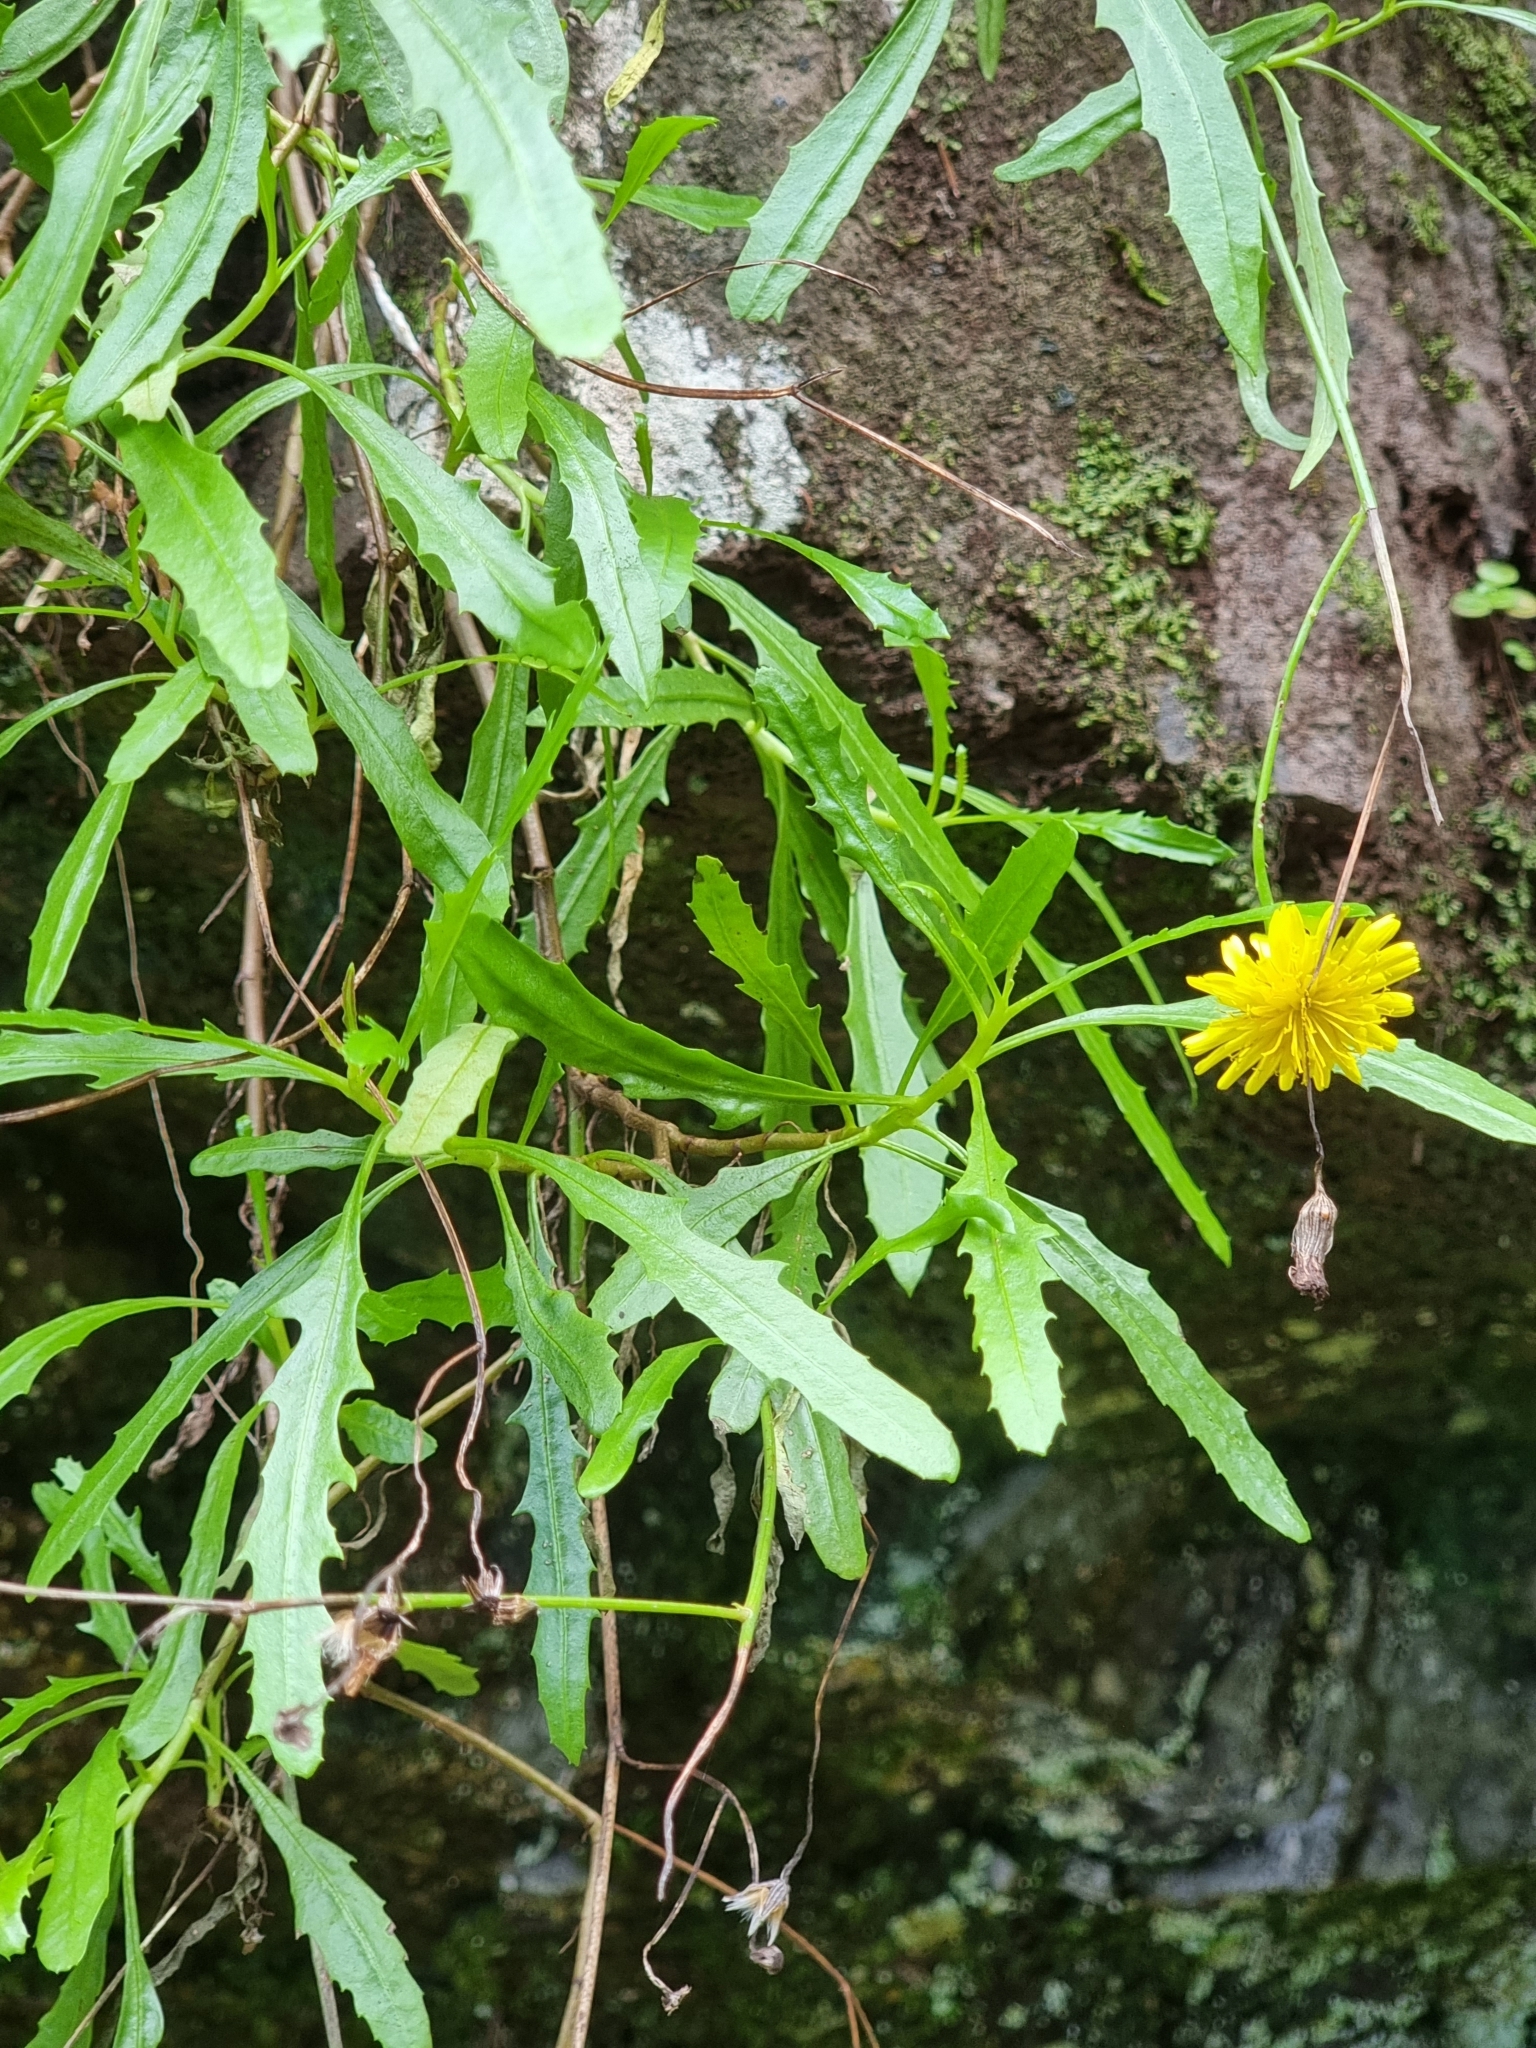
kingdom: Plantae
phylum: Tracheophyta
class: Magnoliopsida
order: Asterales
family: Asteraceae
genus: Tolpis
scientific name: Tolpis succulenta
